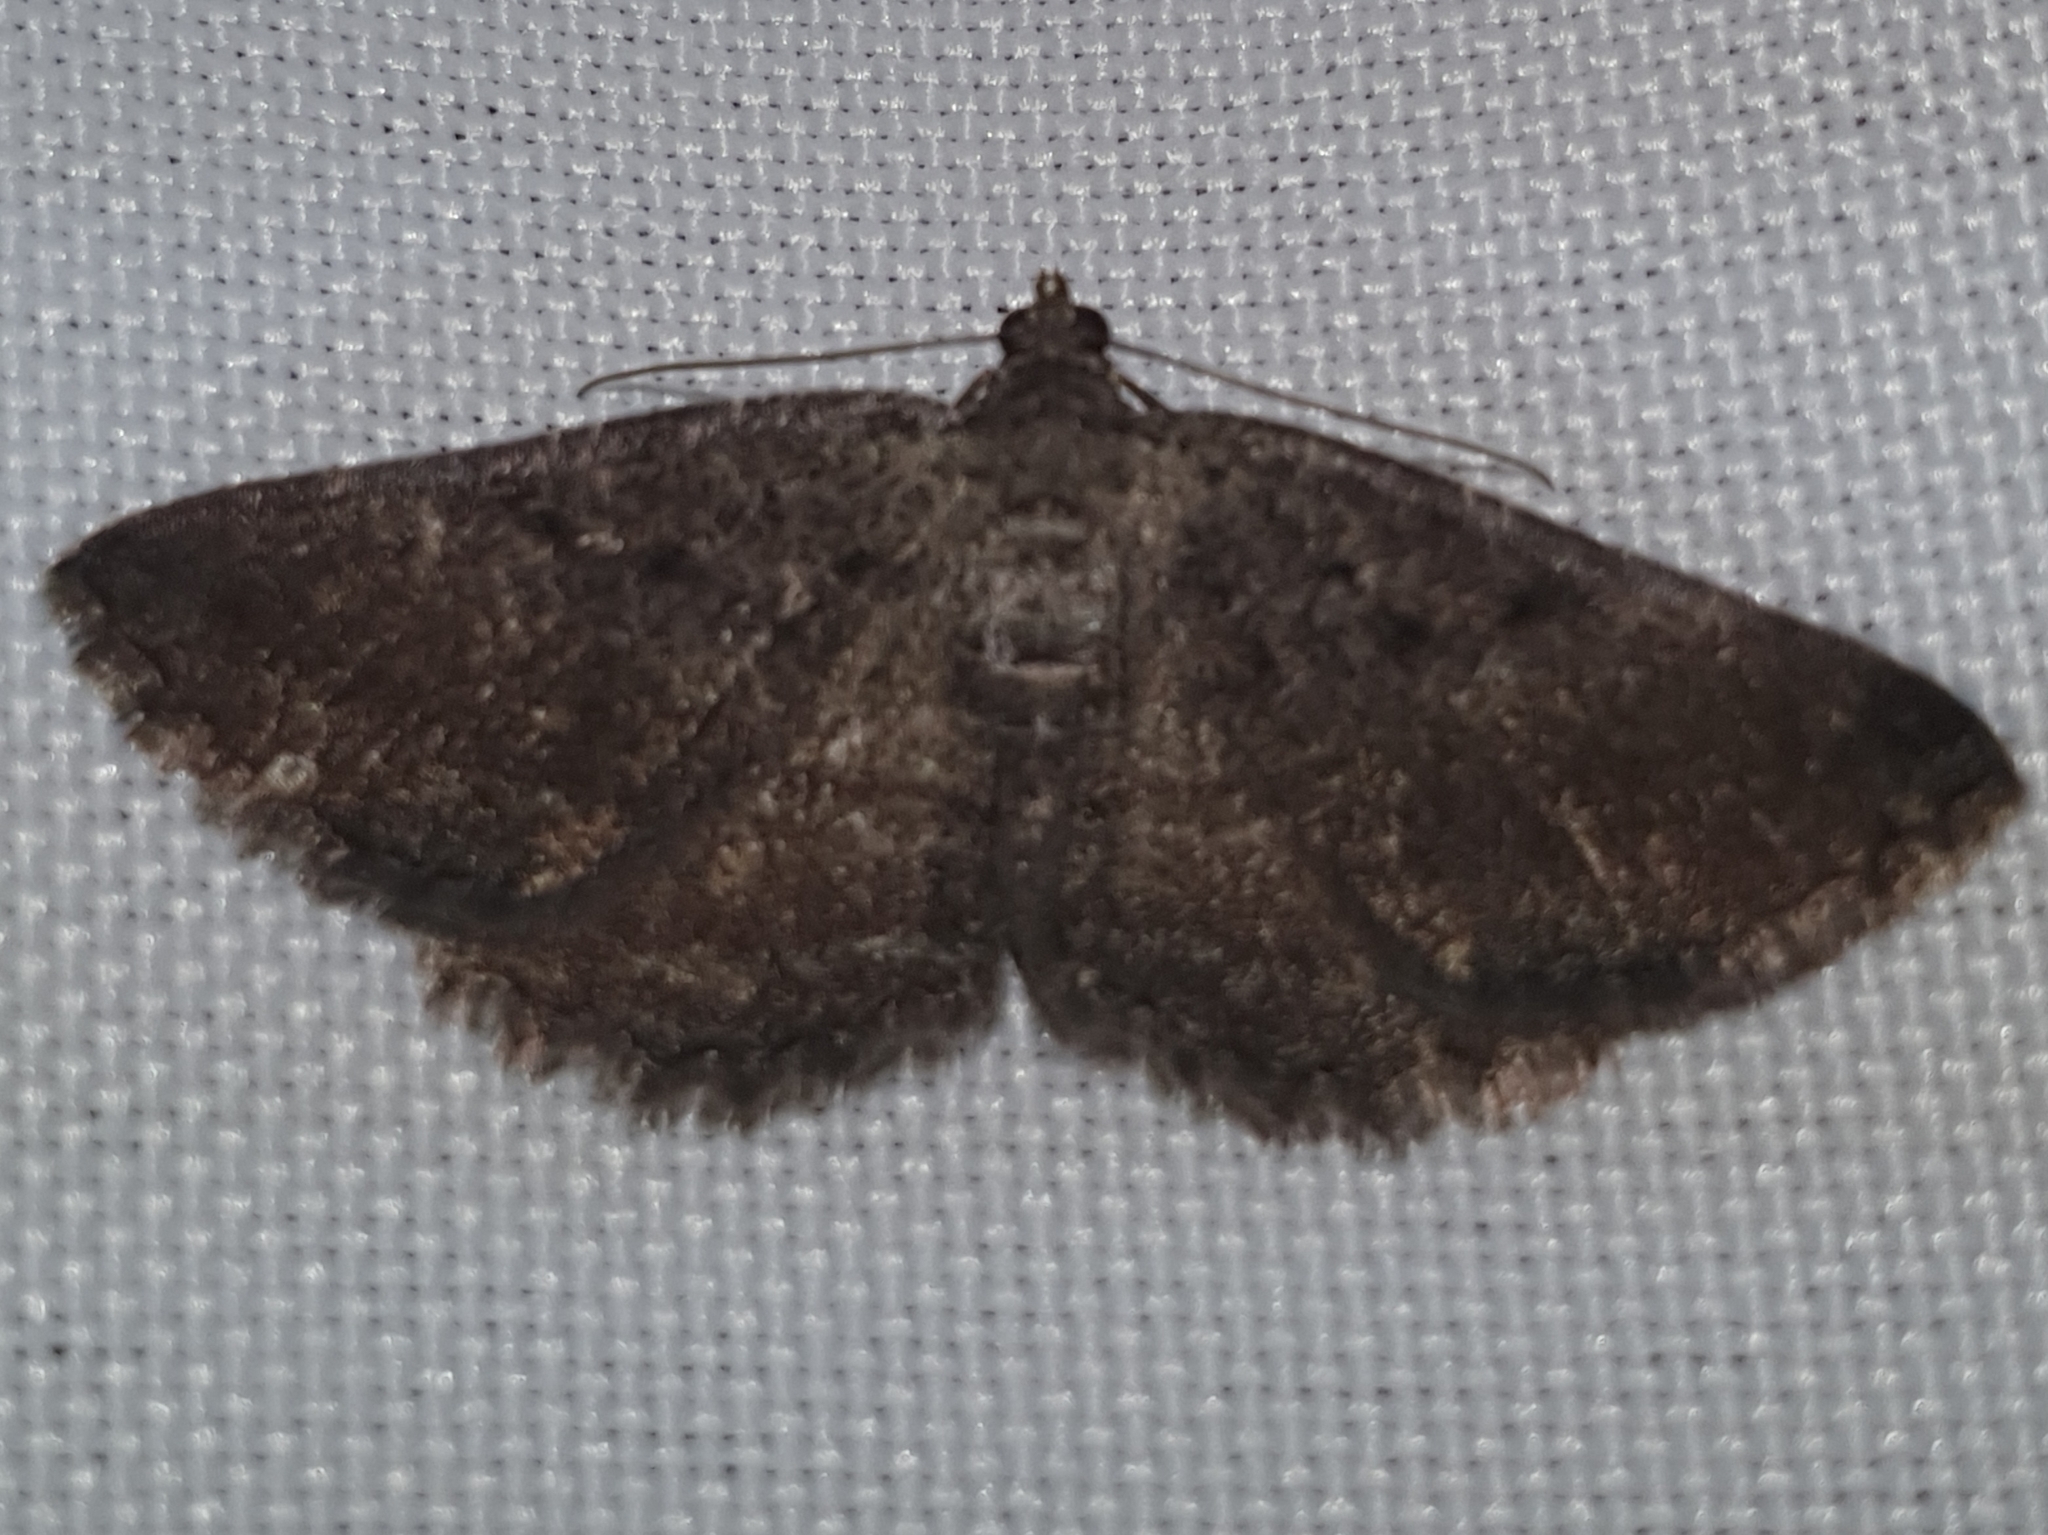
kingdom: Animalia
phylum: Arthropoda
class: Insecta
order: Lepidoptera
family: Geometridae
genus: Rhoptria
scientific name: Rhoptria asperaria
